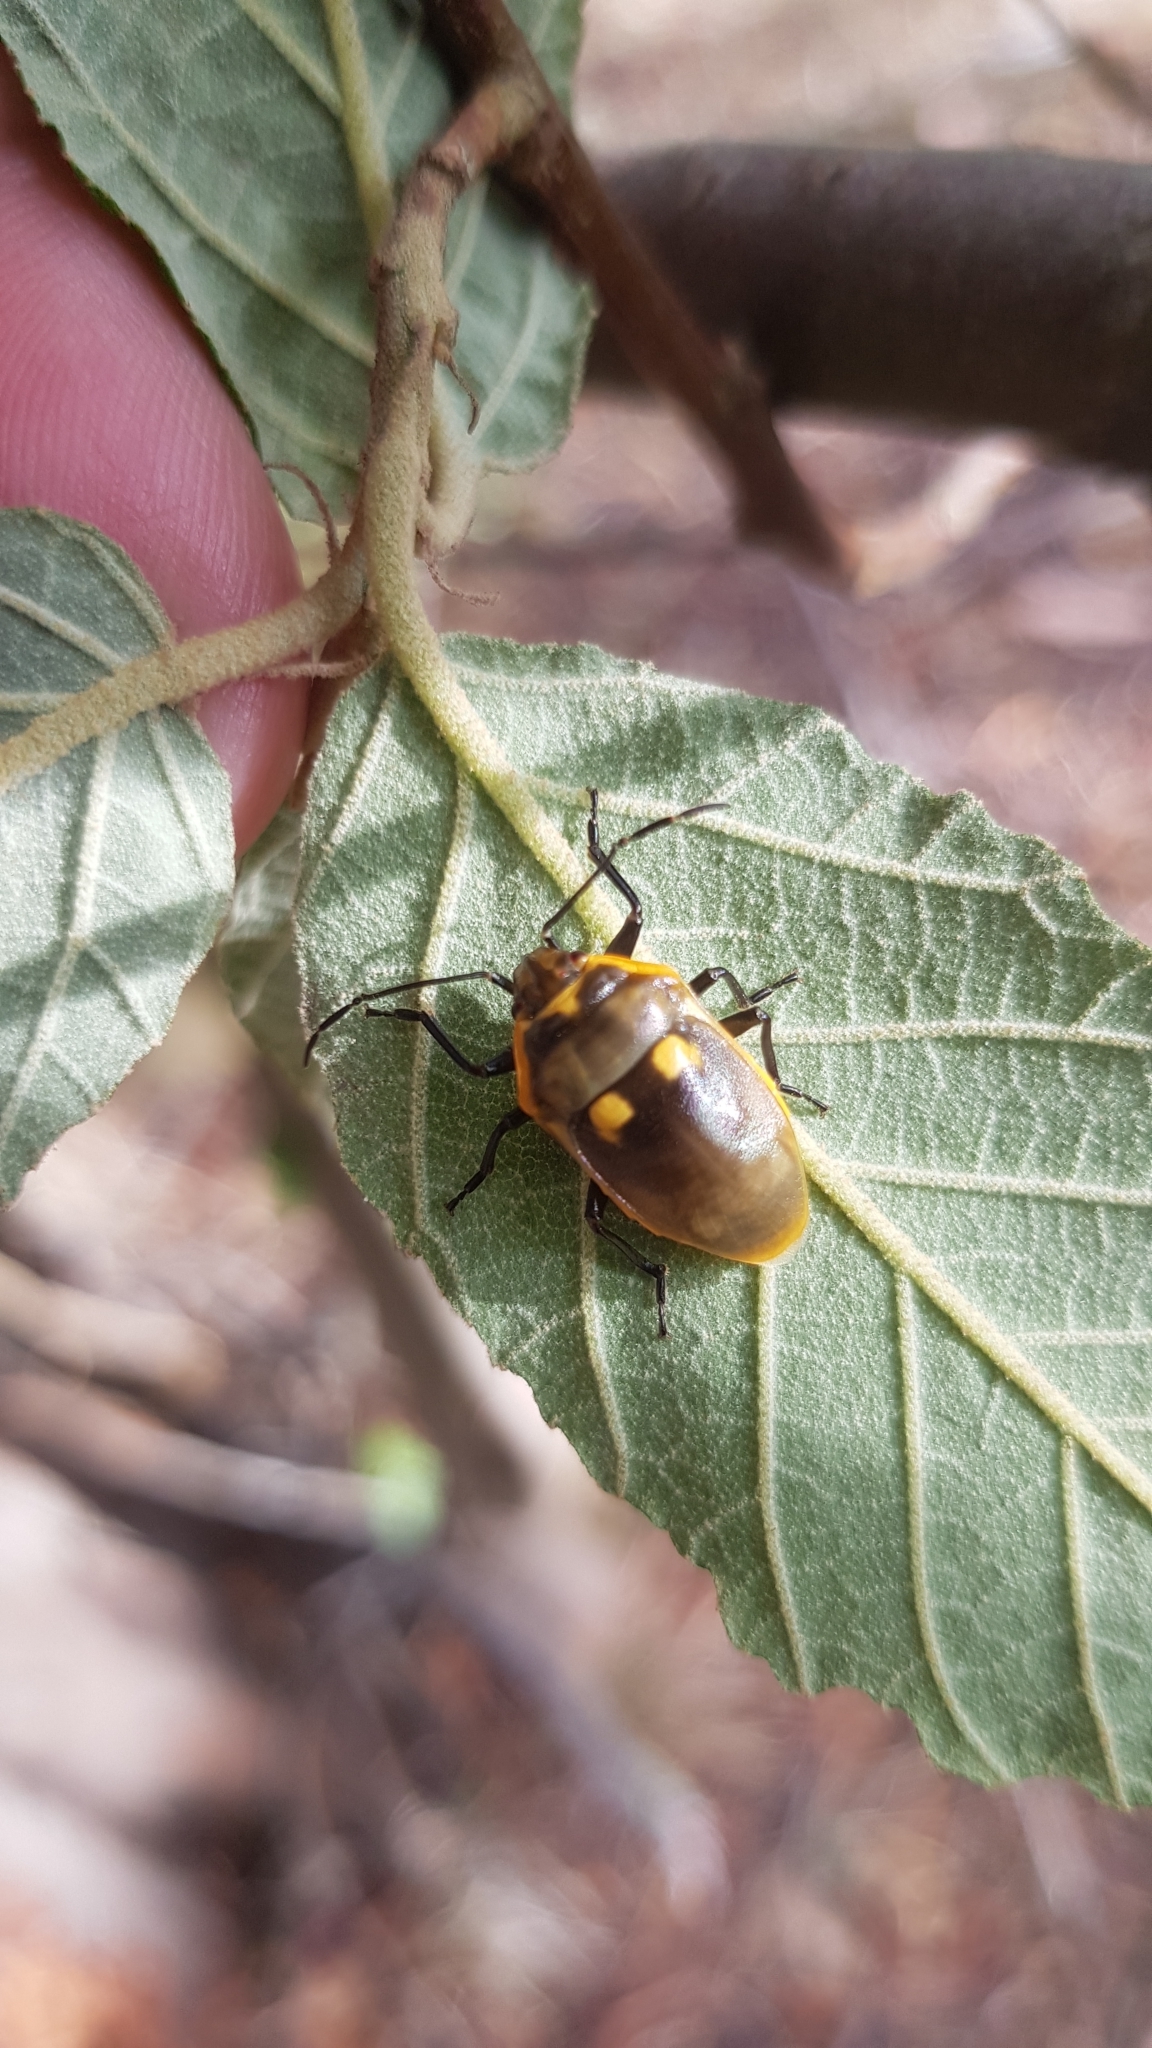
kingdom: Animalia
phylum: Arthropoda
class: Insecta
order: Hemiptera
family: Scutelleridae
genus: Scutiphora
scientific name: Scutiphora pedicellata
